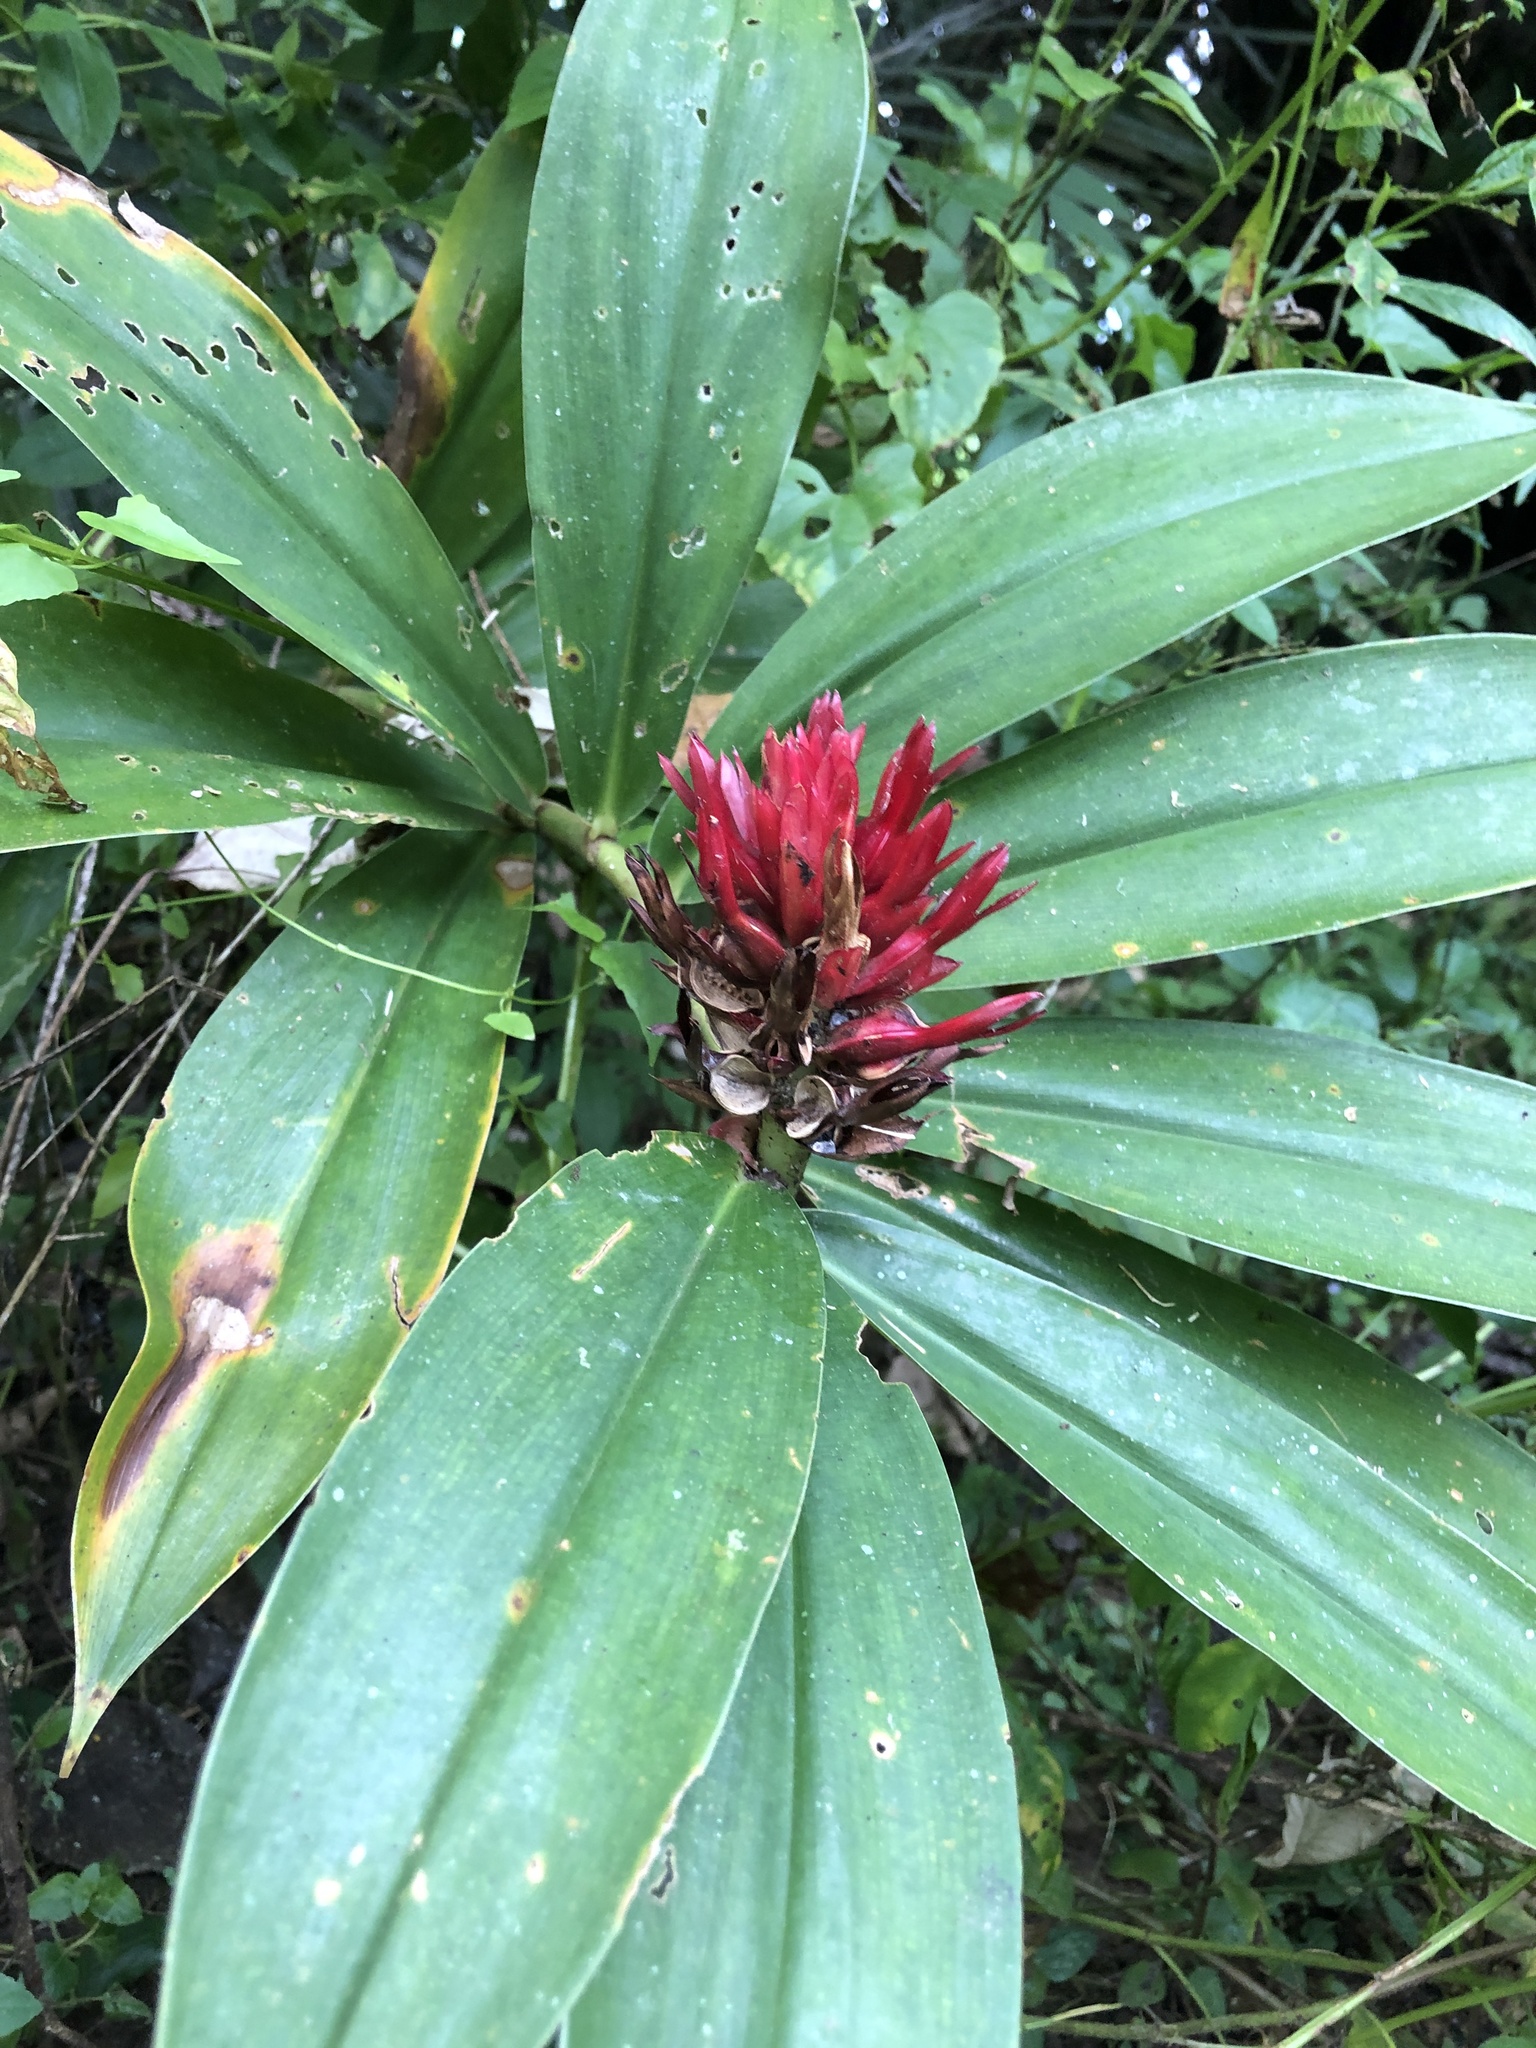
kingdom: Plantae
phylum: Tracheophyta
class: Liliopsida
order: Zingiberales
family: Costaceae
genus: Hellenia
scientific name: Hellenia speciosa
